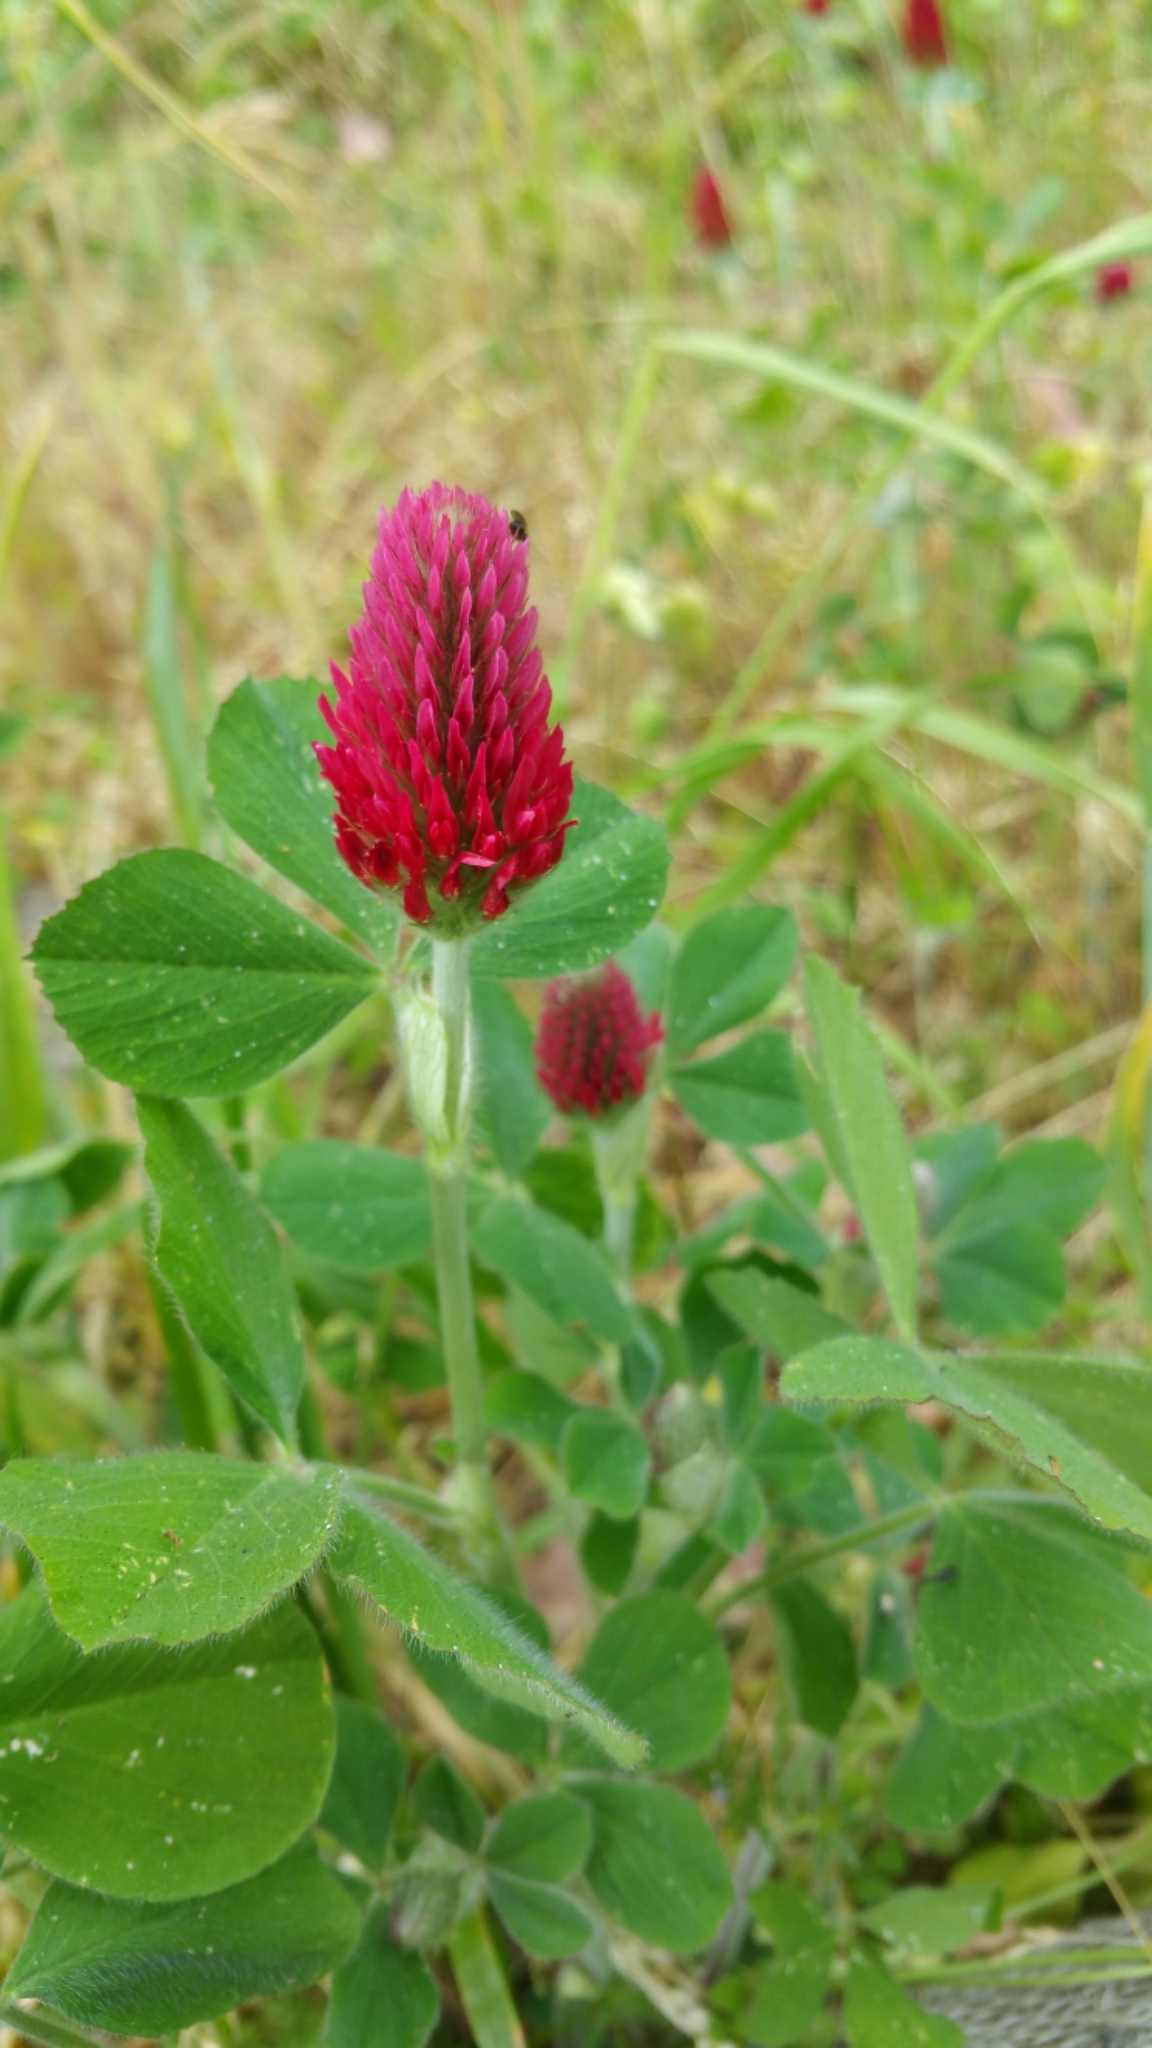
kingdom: Plantae
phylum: Tracheophyta
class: Magnoliopsida
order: Fabales
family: Fabaceae
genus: Trifolium
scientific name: Trifolium incarnatum
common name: Crimson clover
